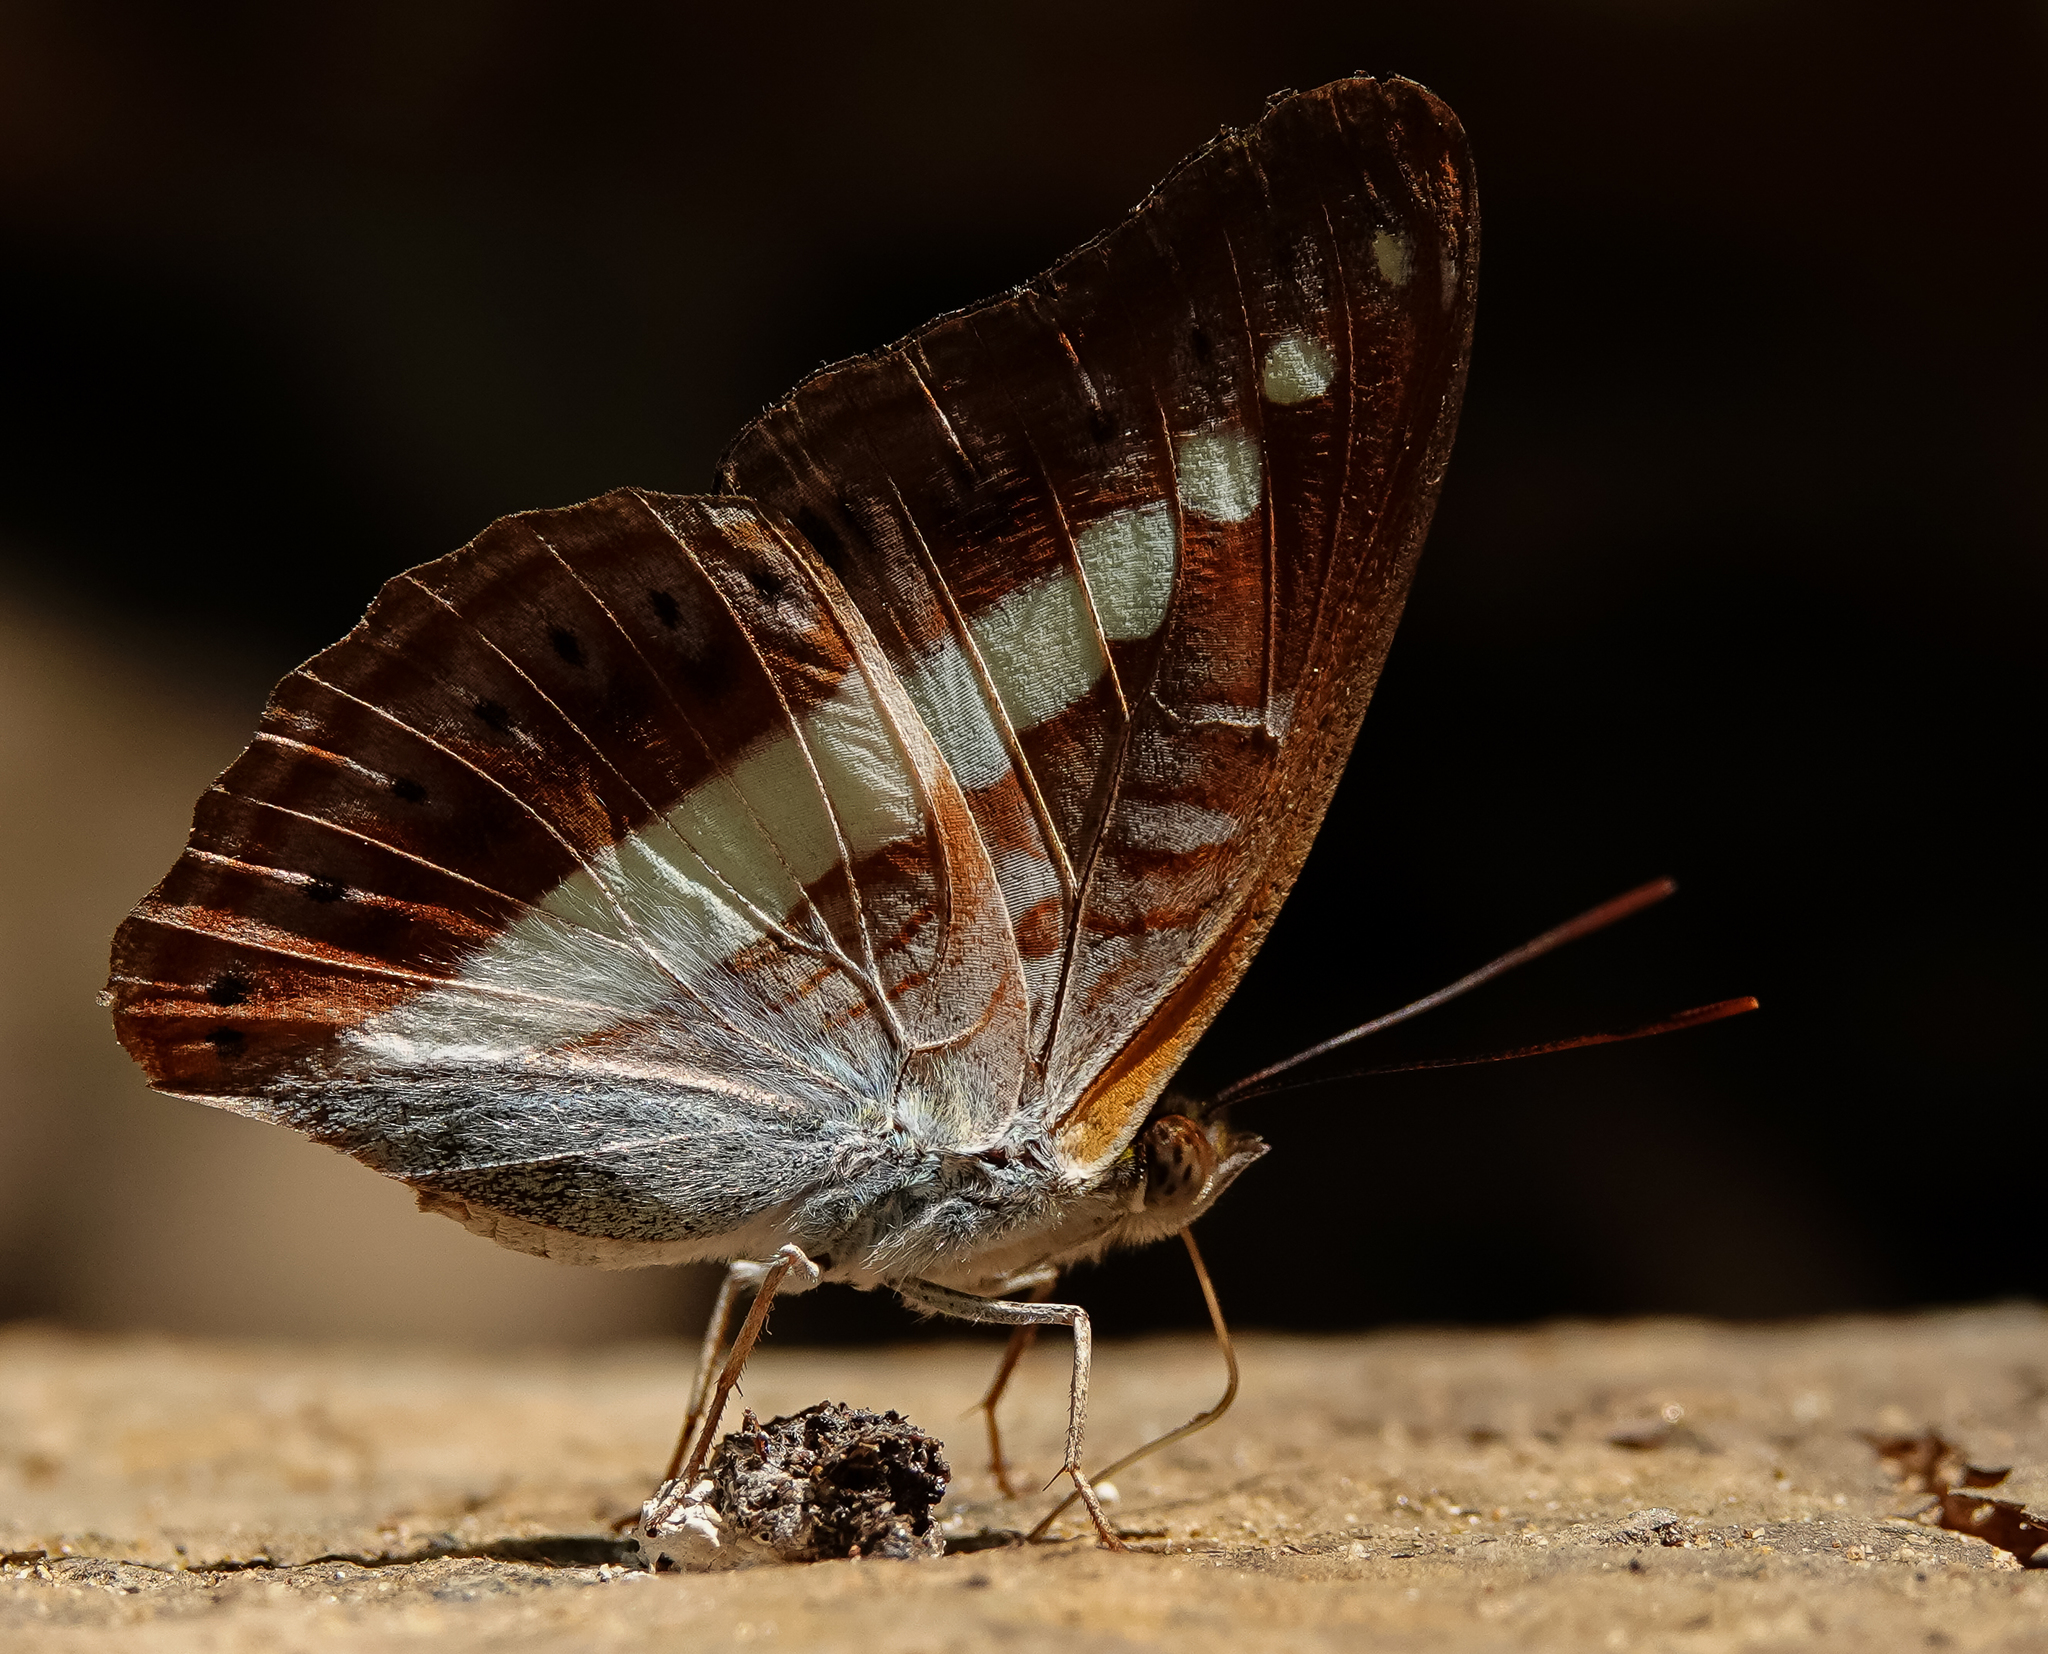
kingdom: Animalia
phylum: Arthropoda
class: Insecta
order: Lepidoptera
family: Nymphalidae
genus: Limenitis
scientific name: Limenitis Sumalia daraxa
